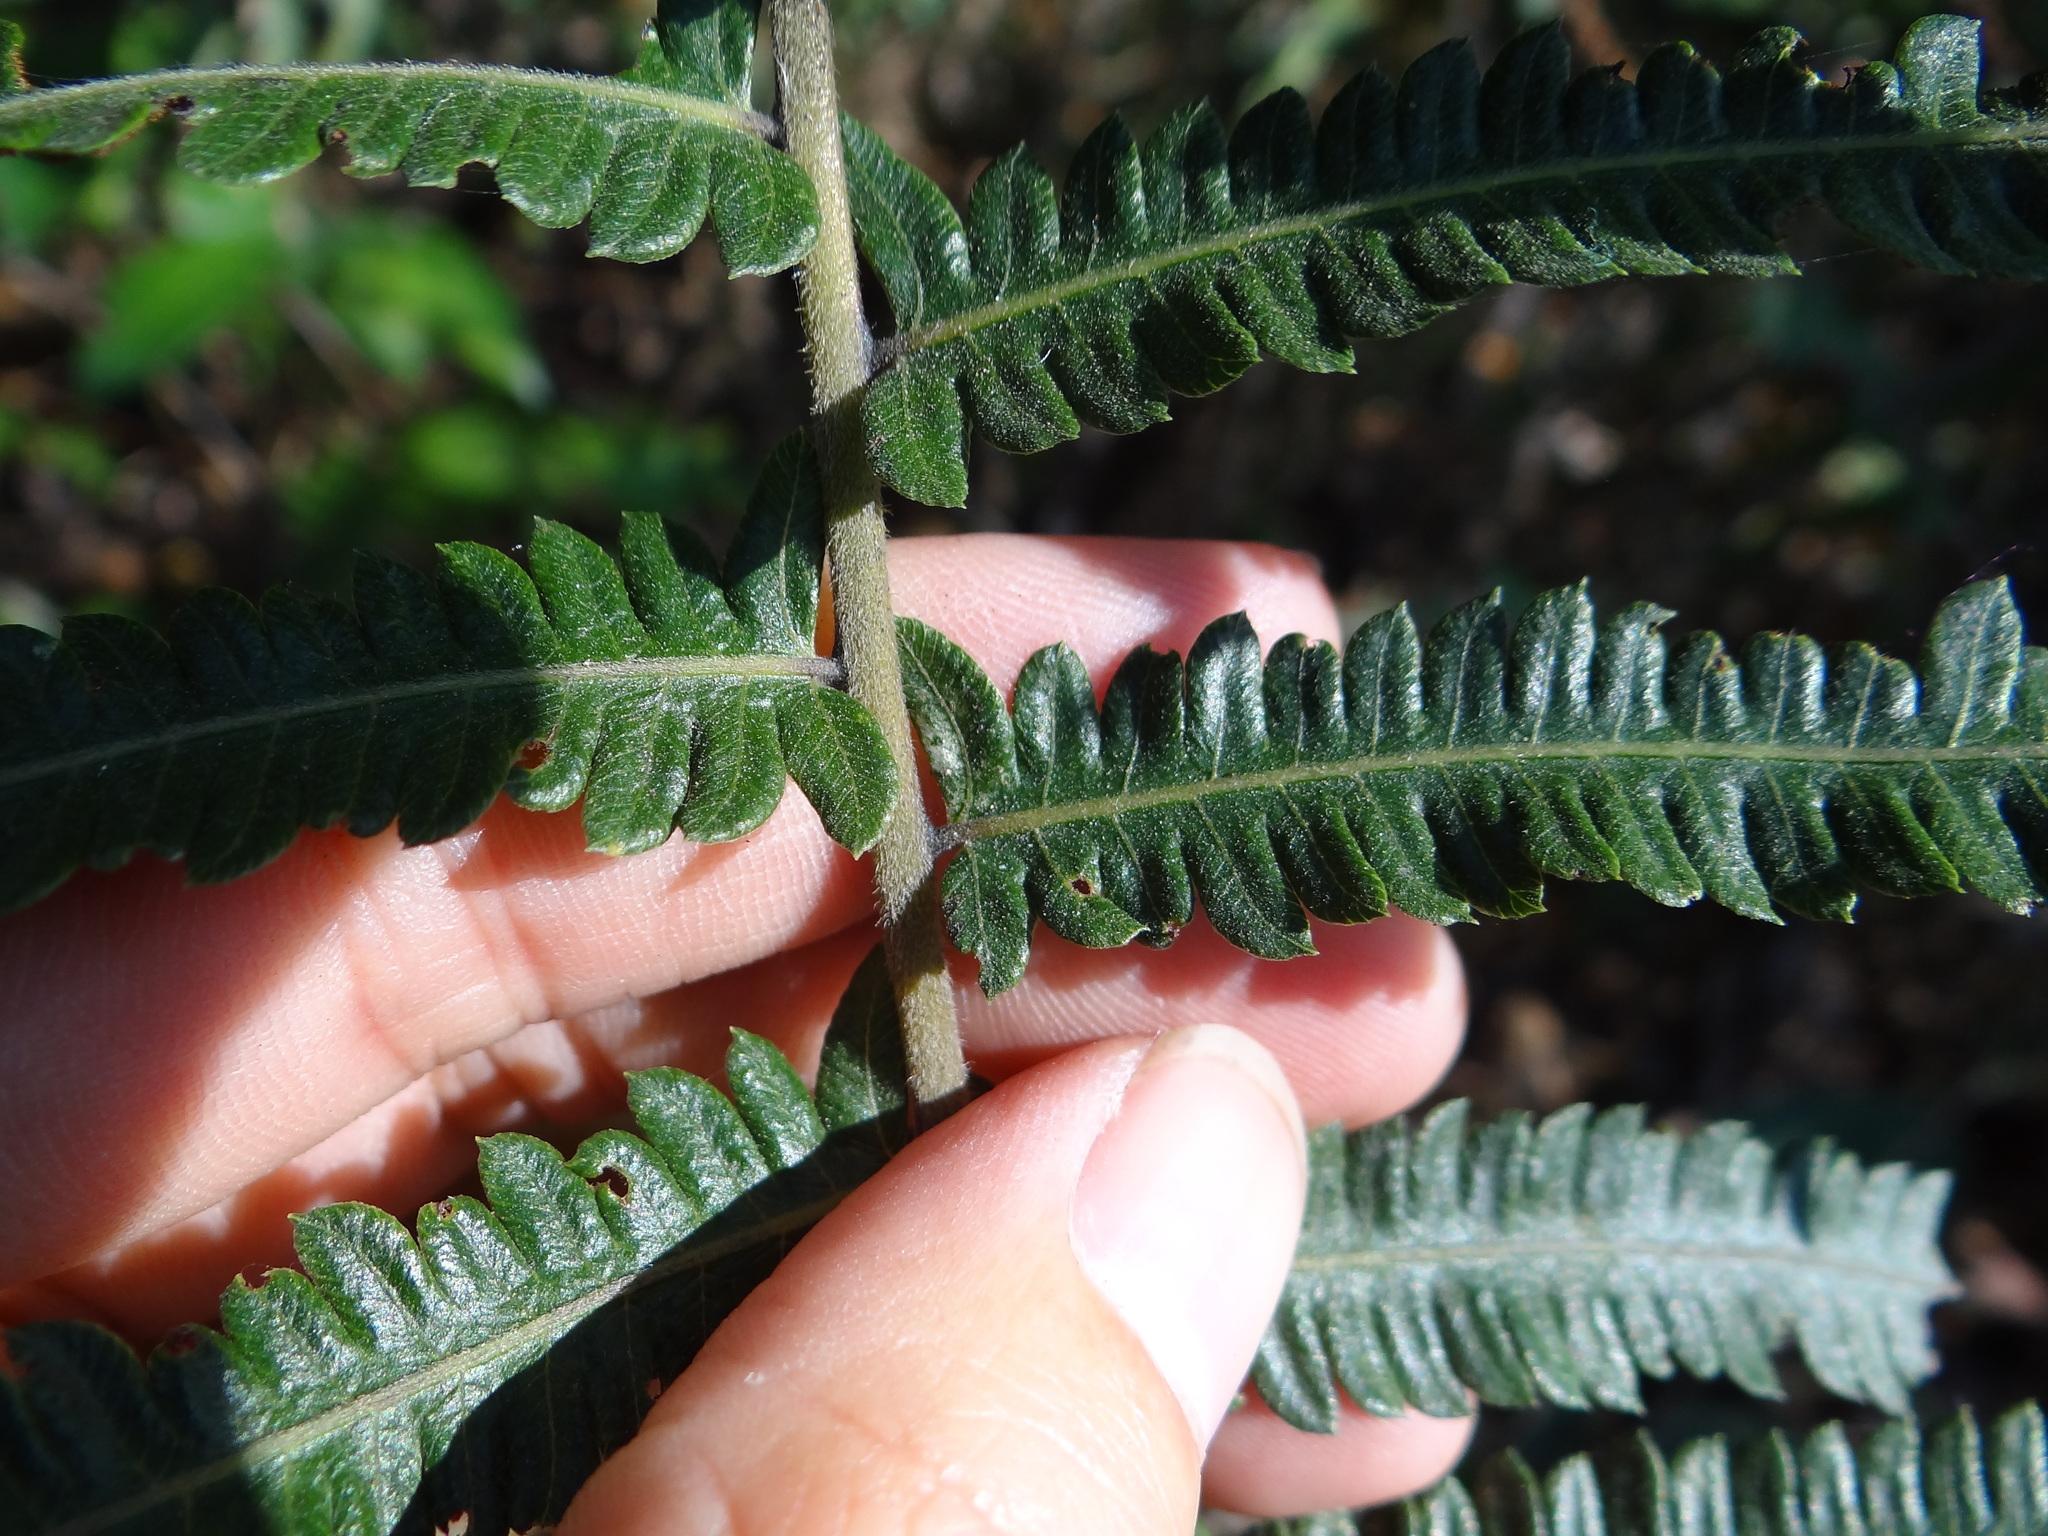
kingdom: Plantae
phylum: Tracheophyta
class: Polypodiopsida
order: Polypodiales
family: Thelypteridaceae
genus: Christella
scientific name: Christella acuminata
